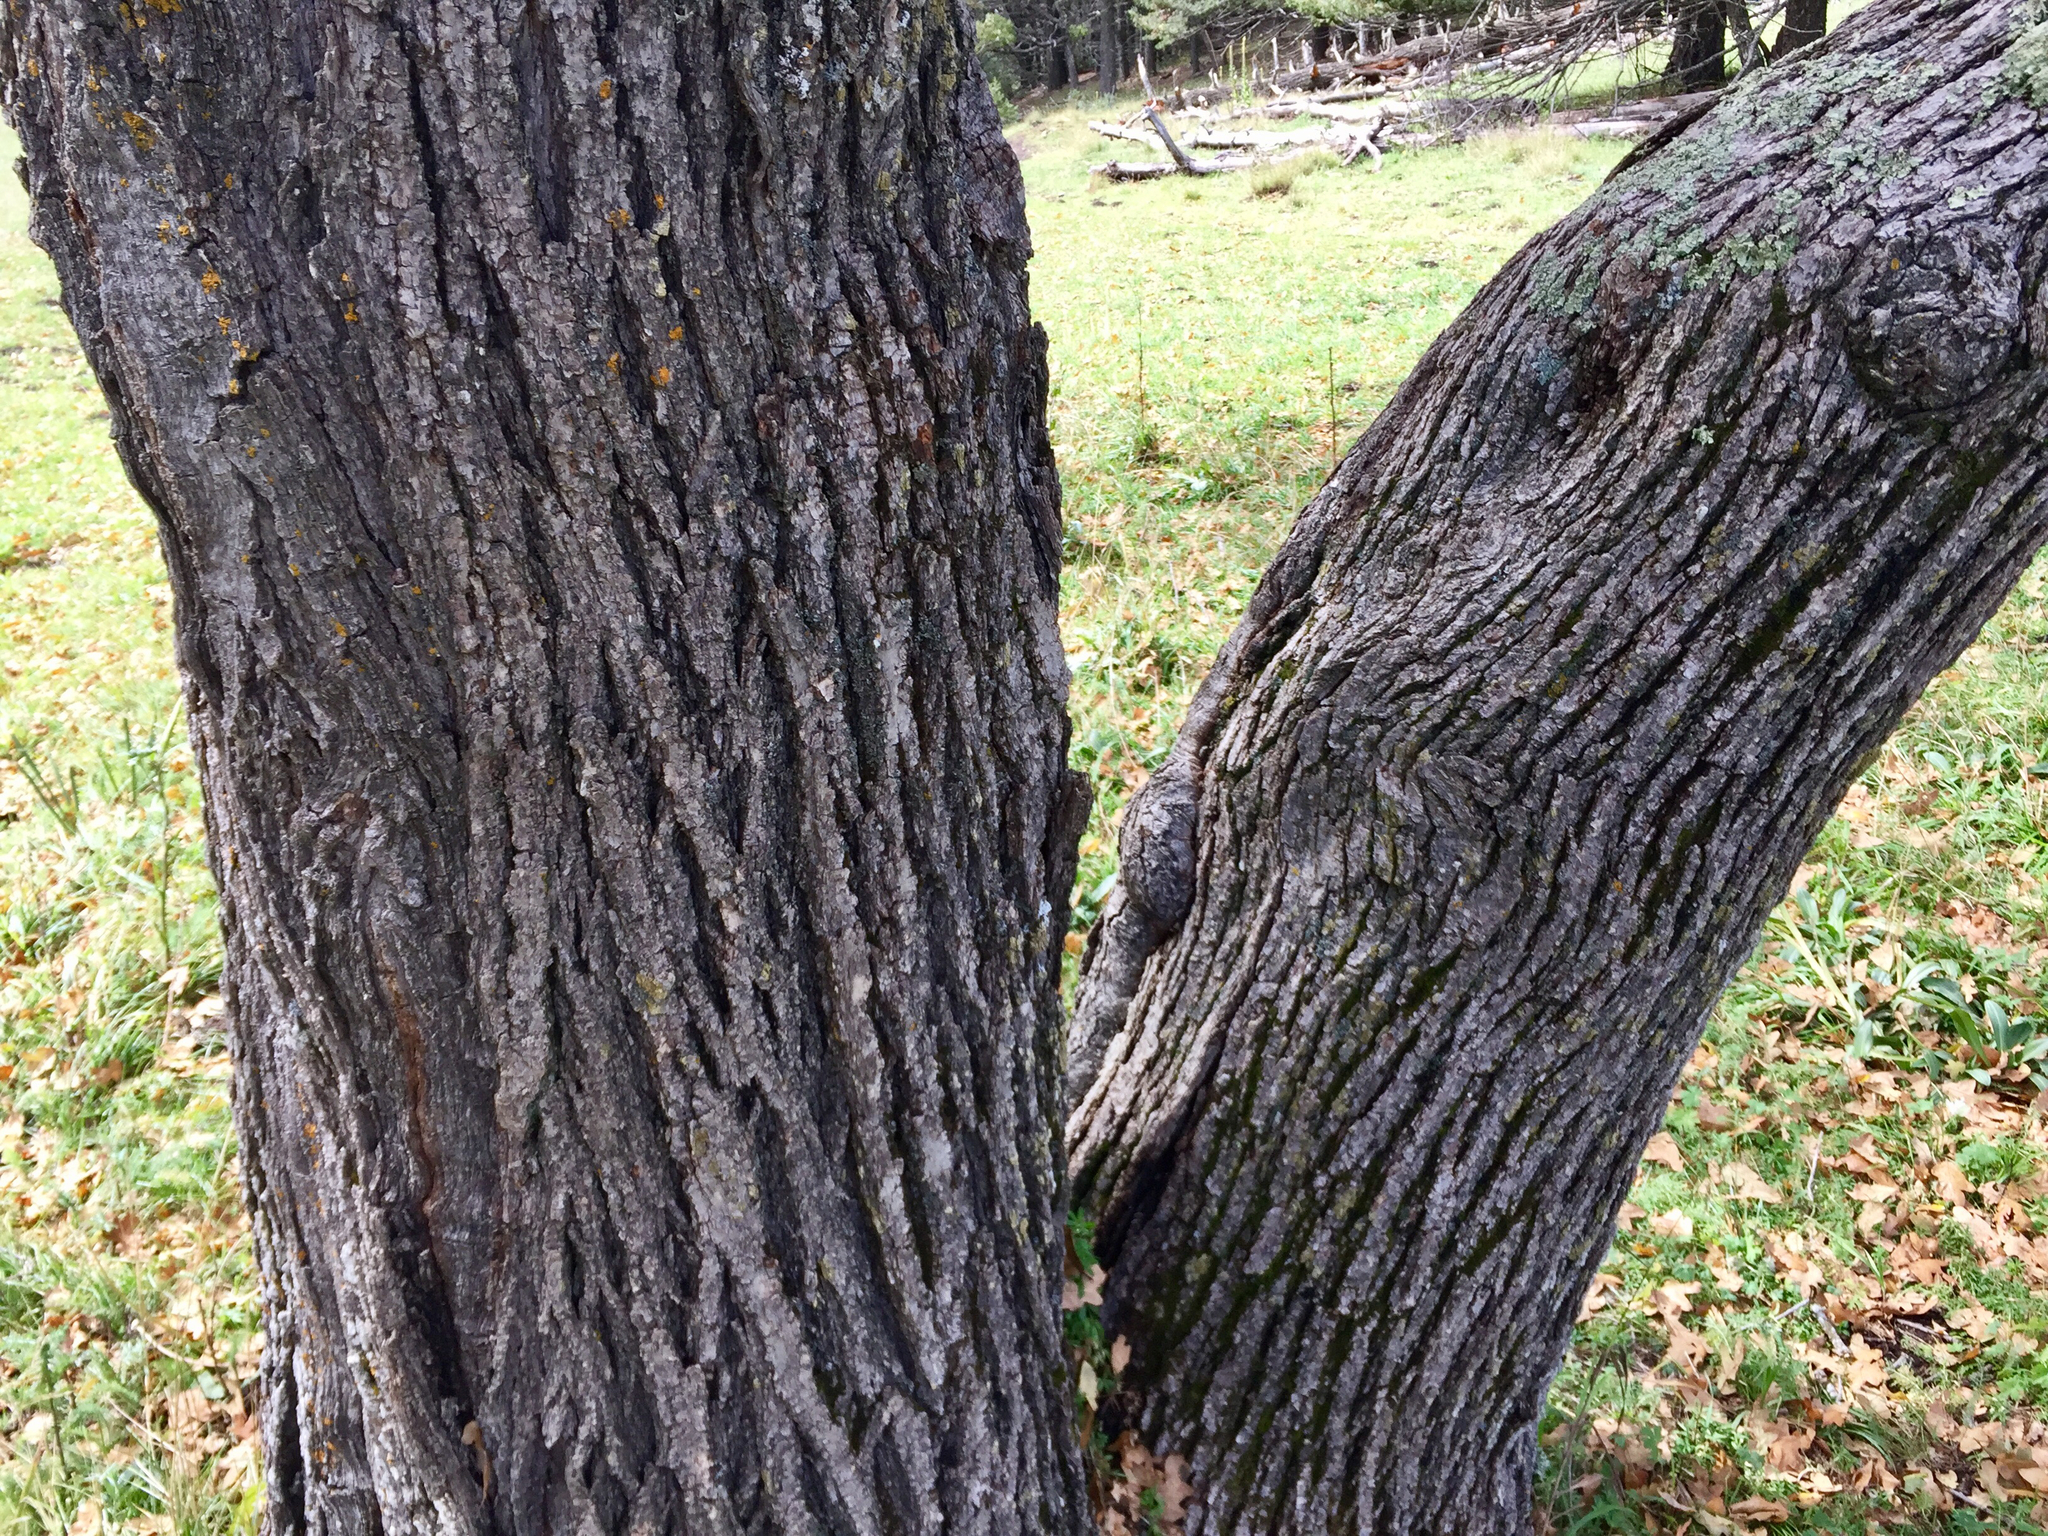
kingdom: Plantae
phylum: Tracheophyta
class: Magnoliopsida
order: Fagales
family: Fagaceae
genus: Quercus
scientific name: Quercus gambelii
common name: Gambel oak
